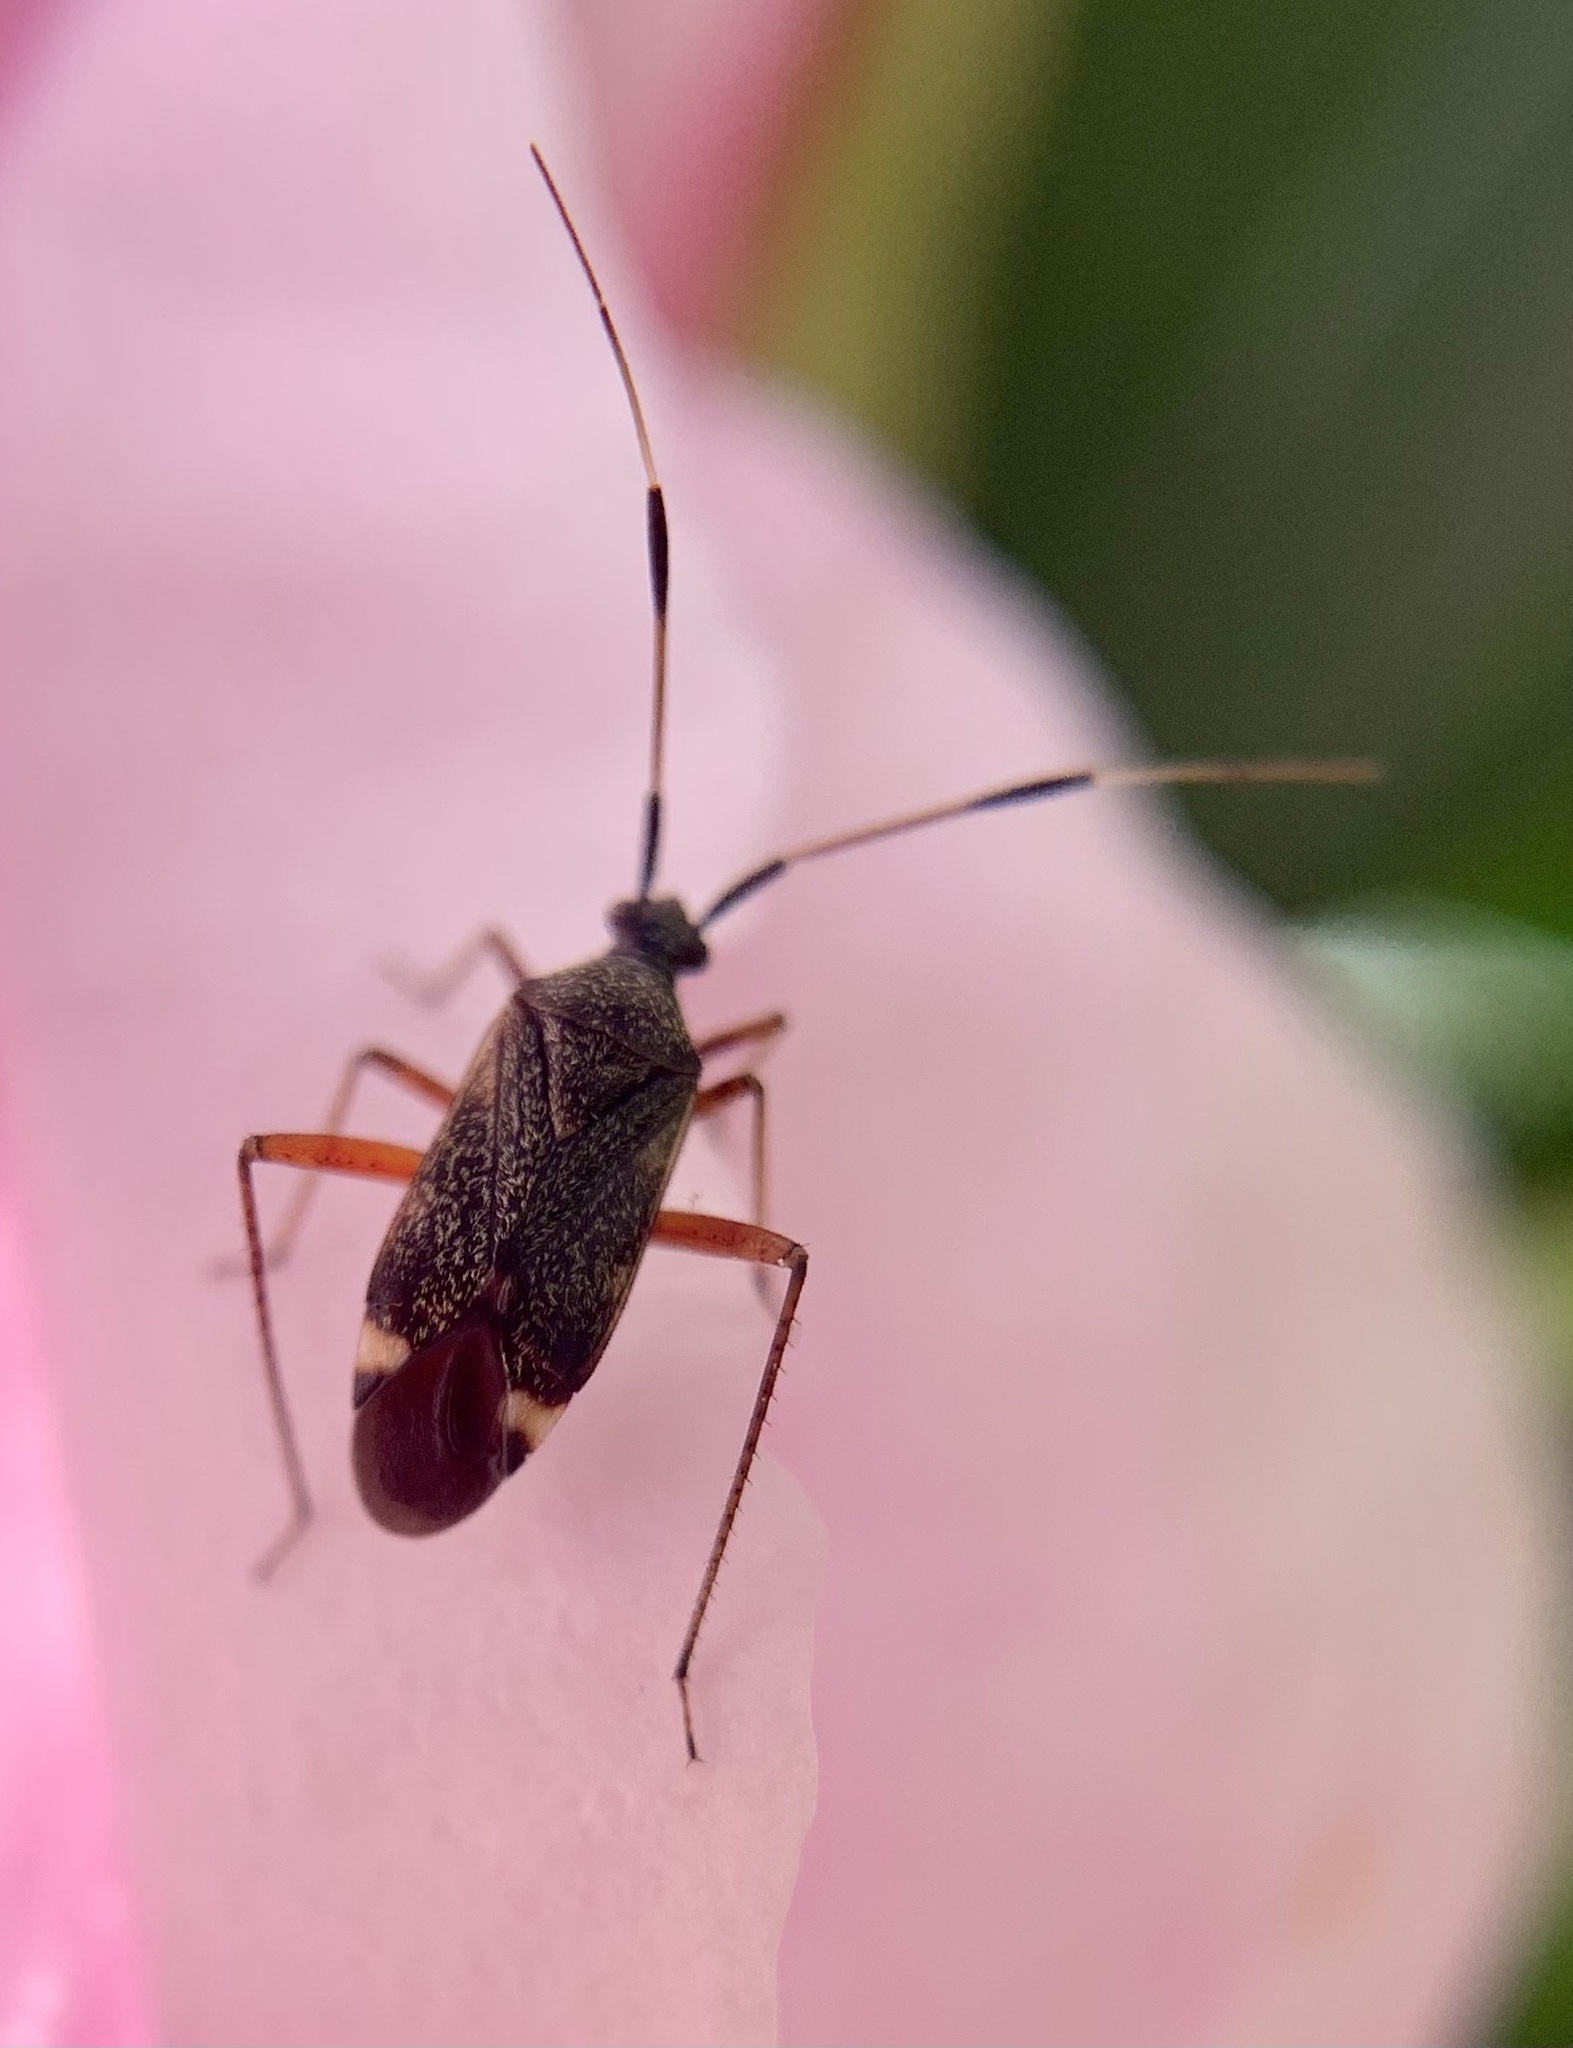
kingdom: Animalia
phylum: Arthropoda
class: Insecta
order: Hemiptera
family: Miridae
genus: Closterotomus
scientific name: Closterotomus biclavatus
